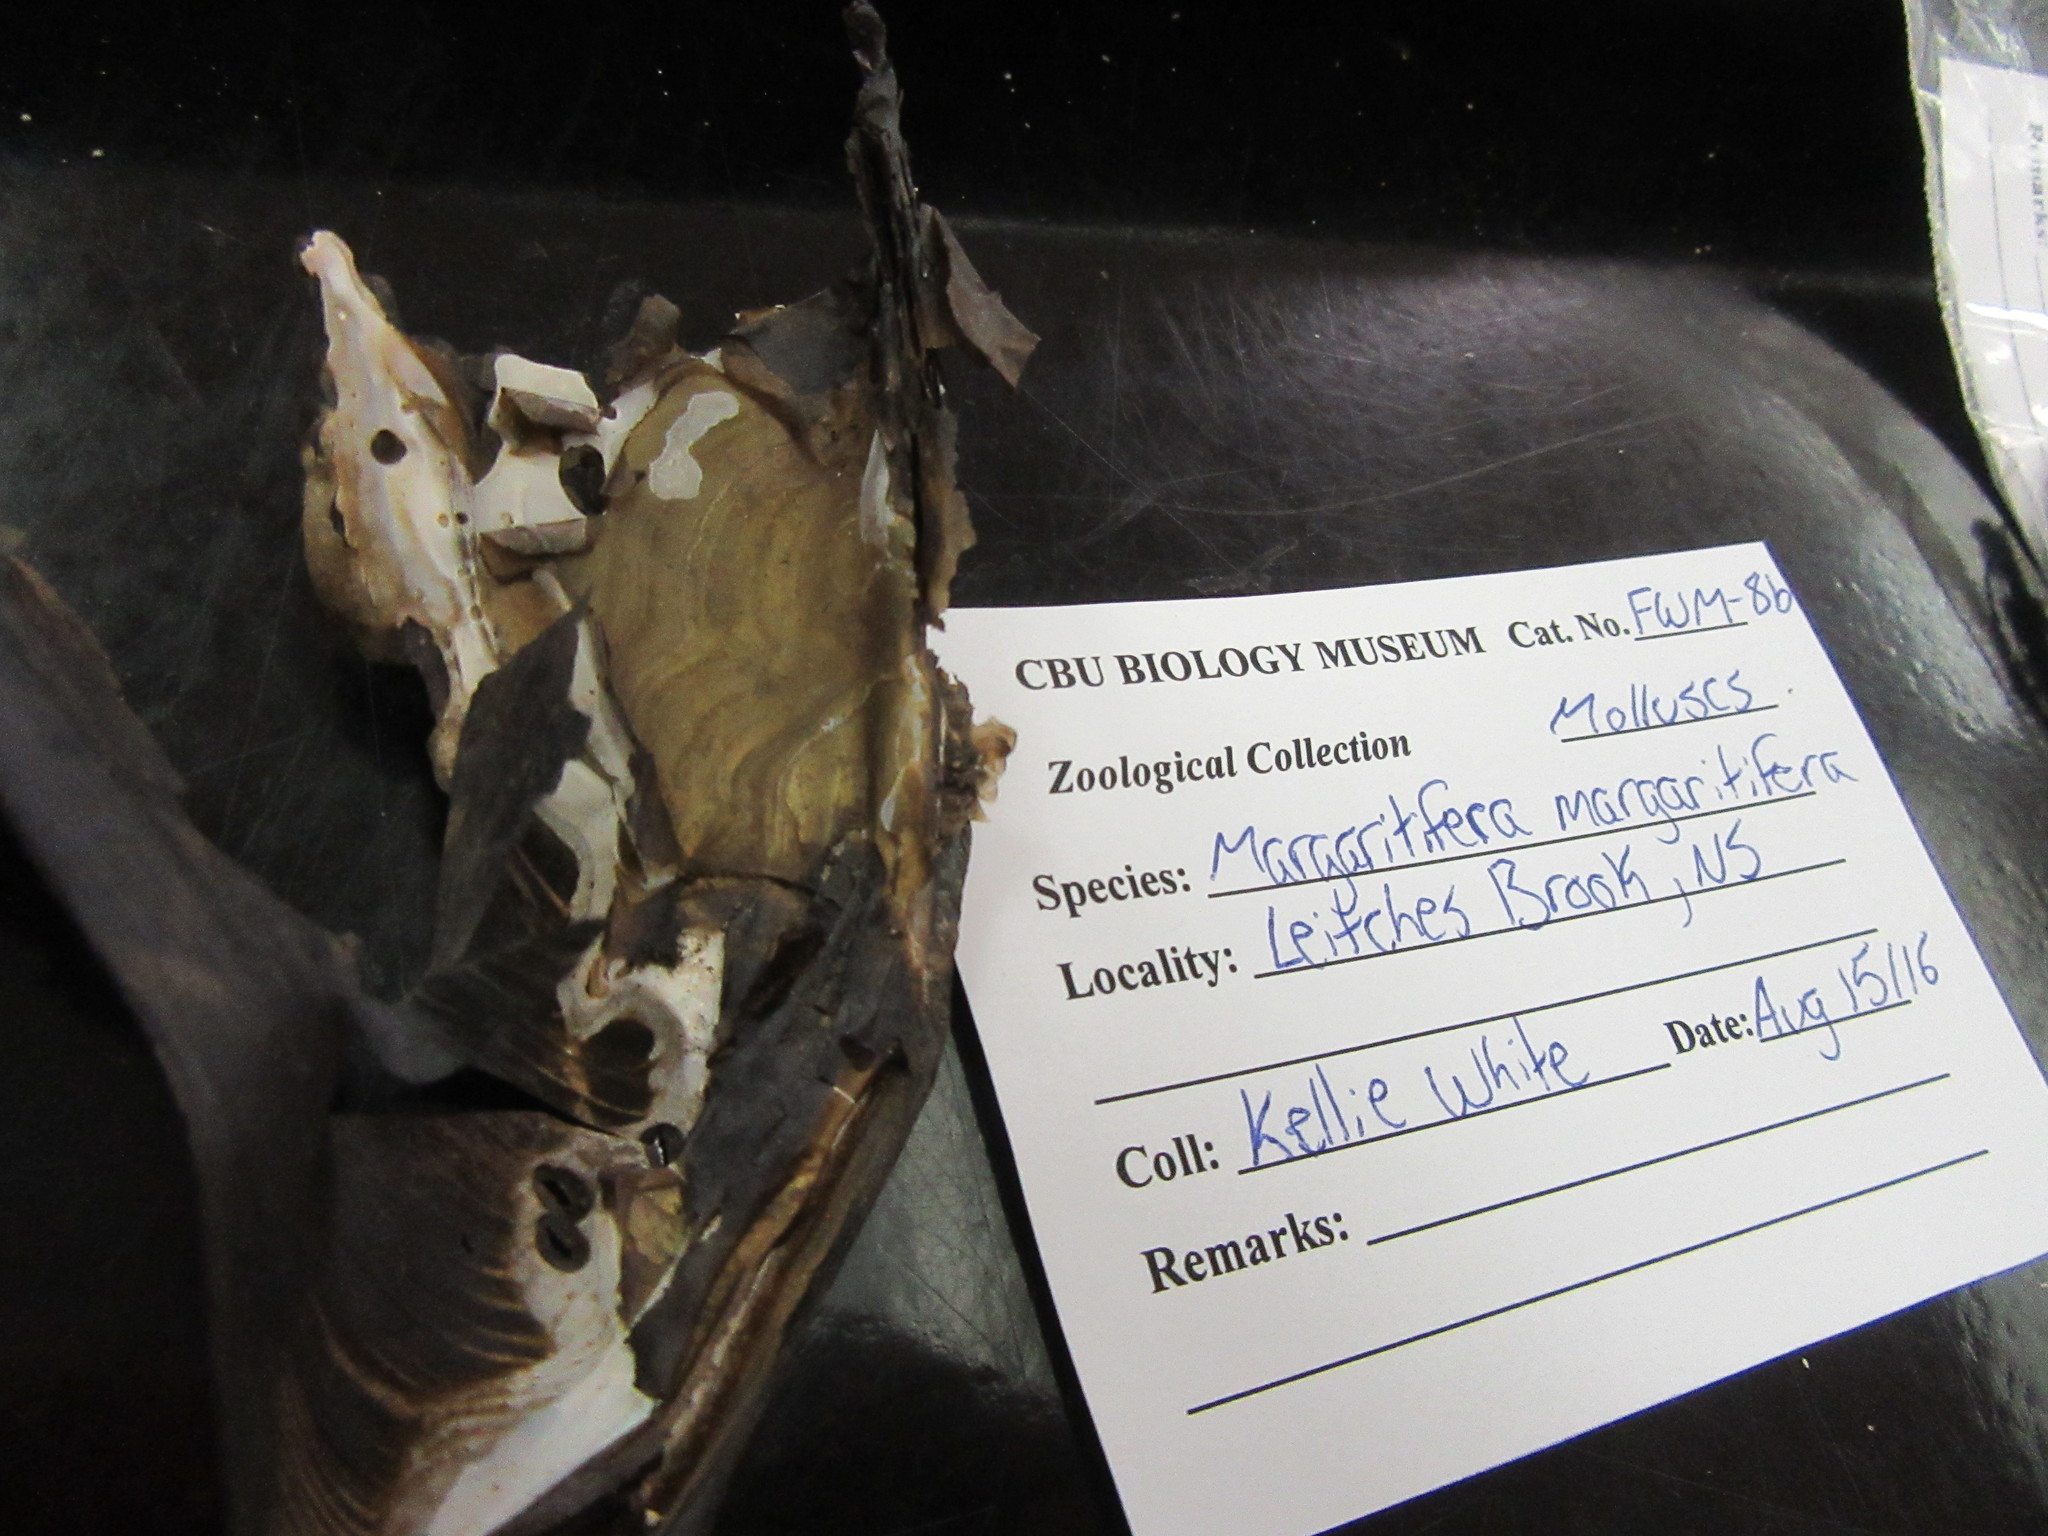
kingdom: Animalia
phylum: Mollusca
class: Bivalvia
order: Unionida
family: Margaritiferidae
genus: Margaritifera
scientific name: Margaritifera margaritifera
